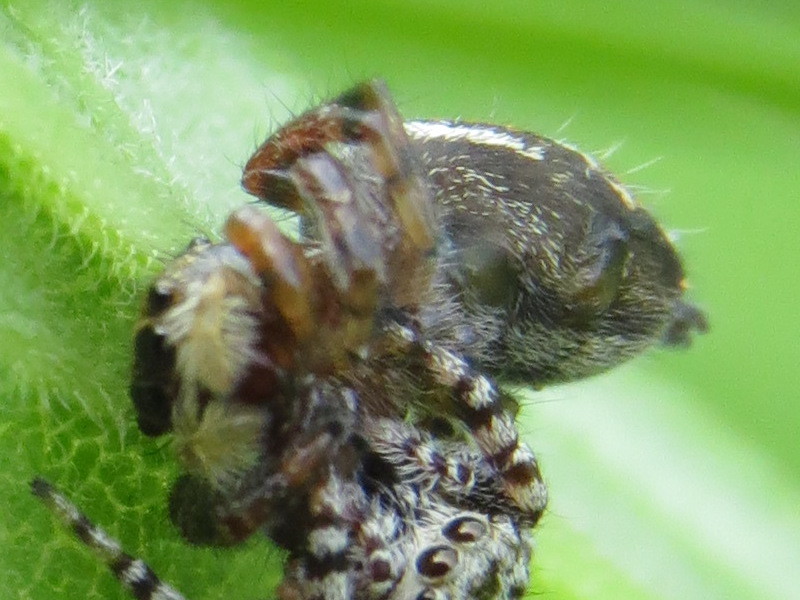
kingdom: Animalia
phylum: Arthropoda
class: Arachnida
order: Araneae
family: Salticidae
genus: Phidippus
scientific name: Phidippus clarus
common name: Brilliant jumping spider
